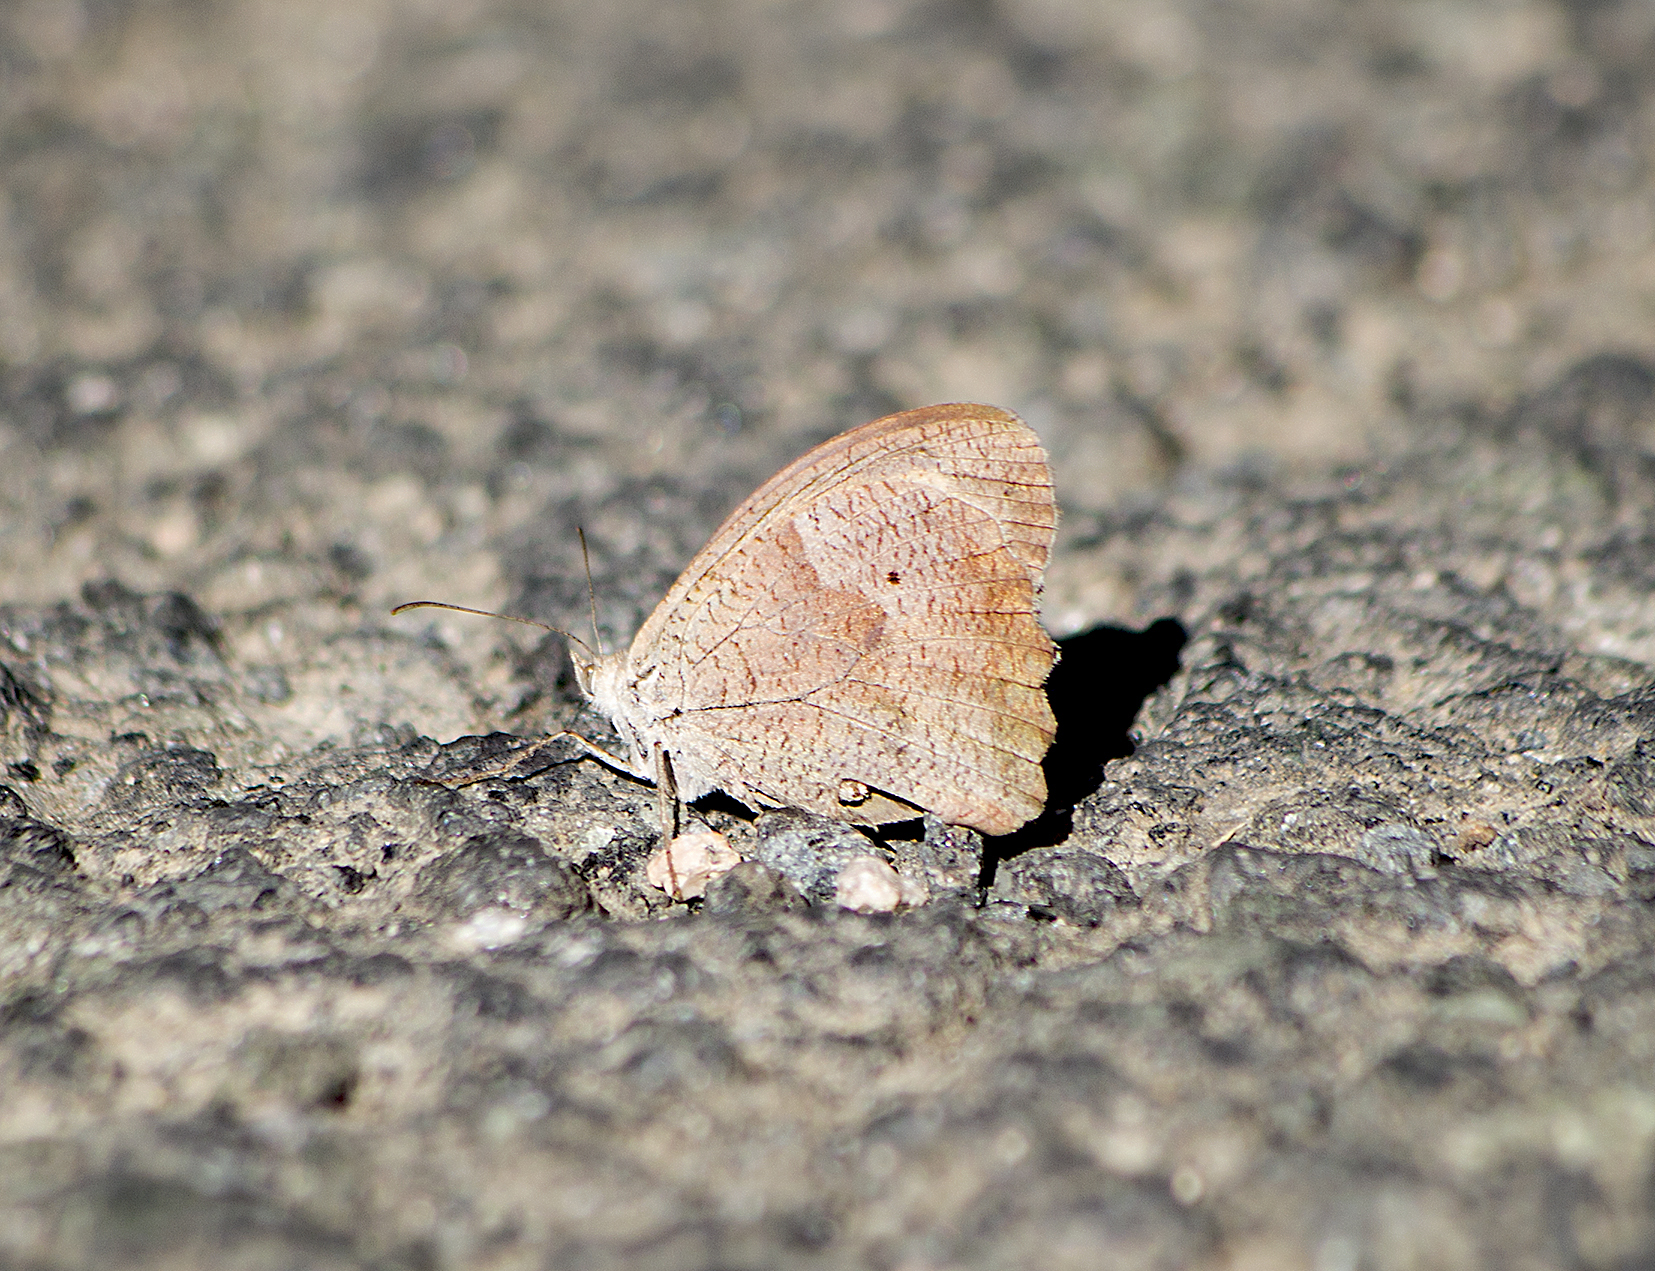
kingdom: Animalia
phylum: Arthropoda
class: Insecta
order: Lepidoptera
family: Nymphalidae
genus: Maniola
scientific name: Maniola jurtina
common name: Meadow brown
